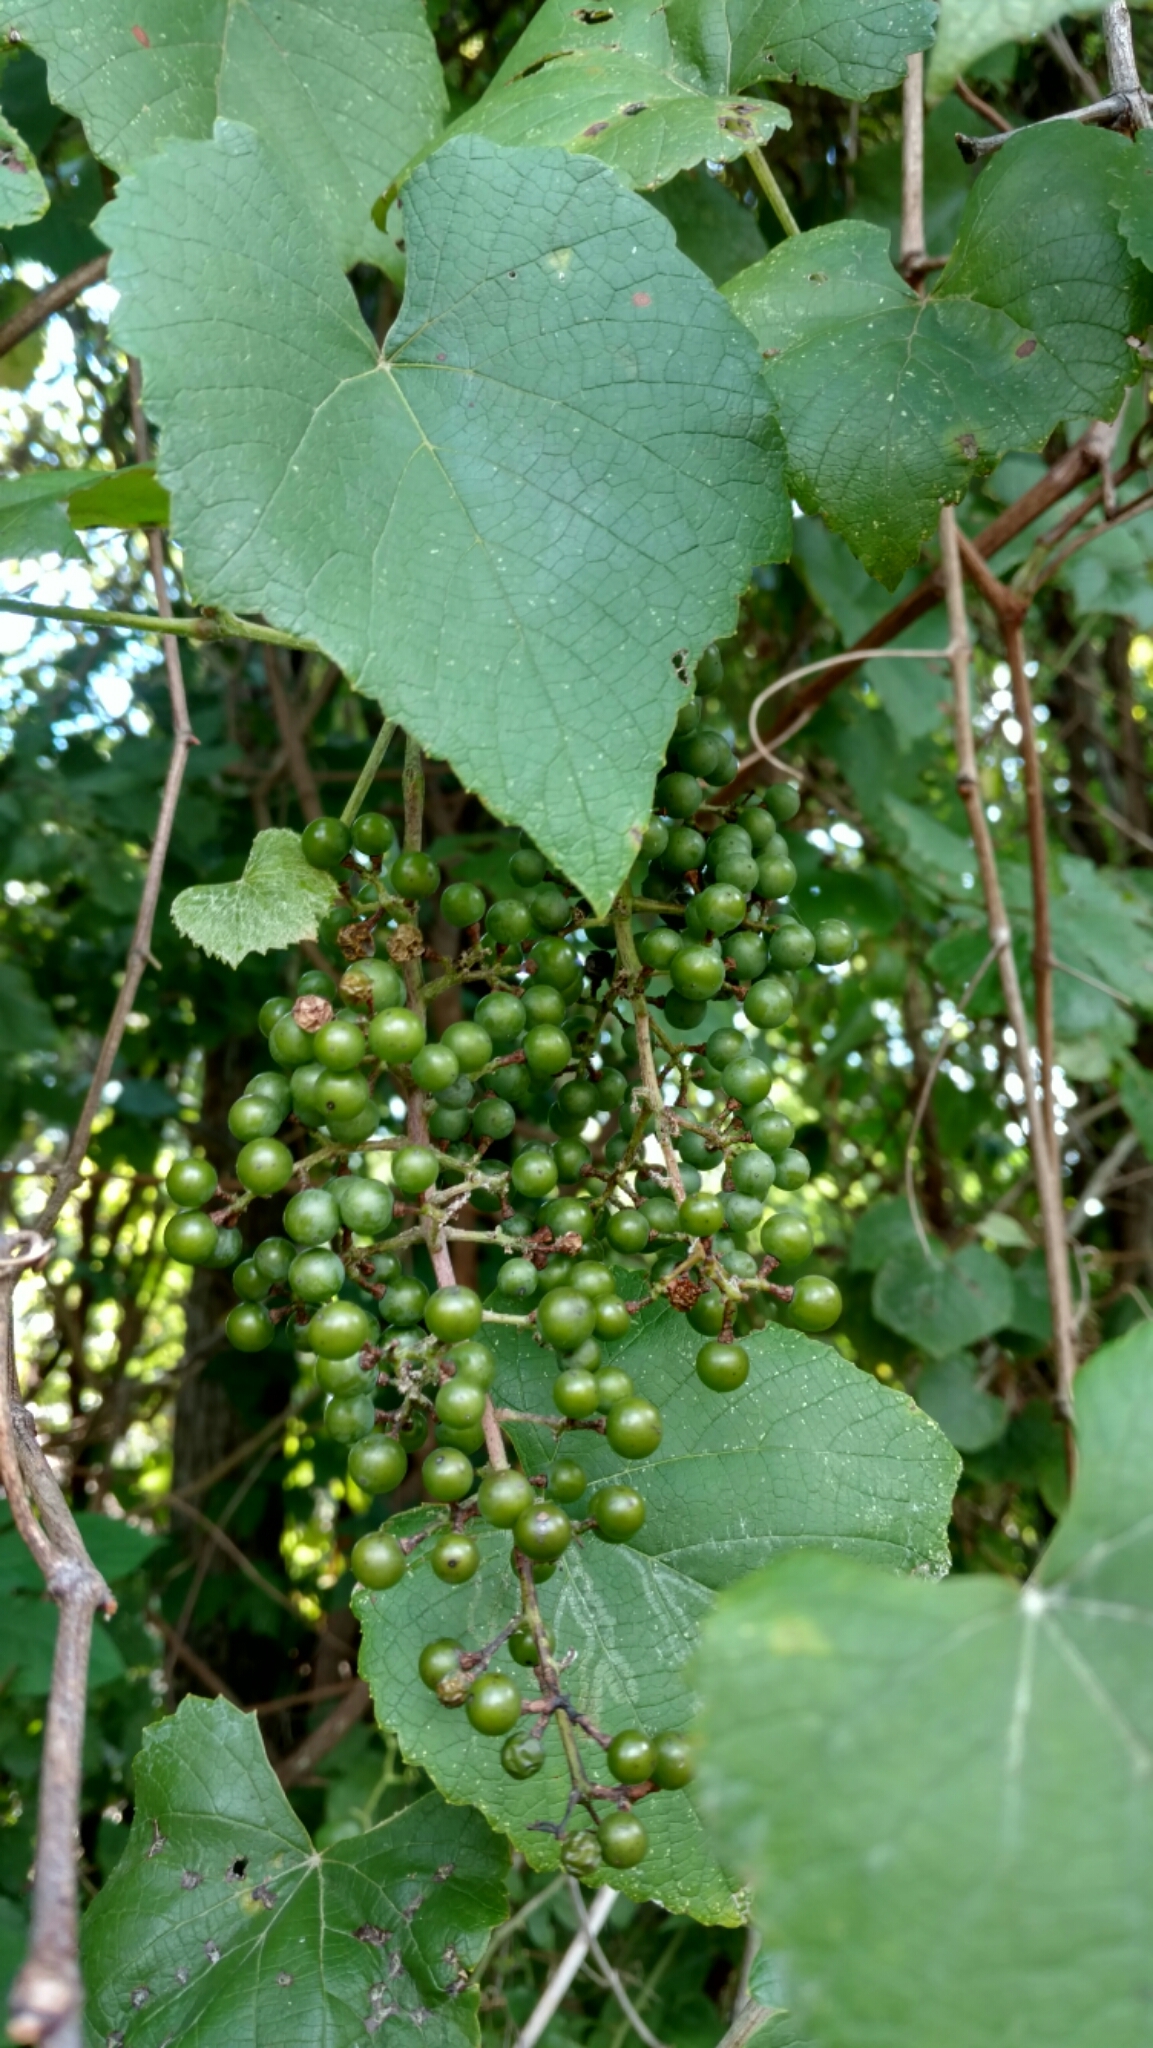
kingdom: Plantae
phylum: Tracheophyta
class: Magnoliopsida
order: Vitales
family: Vitaceae
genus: Vitis
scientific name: Vitis cinerea
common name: Ashy grape
